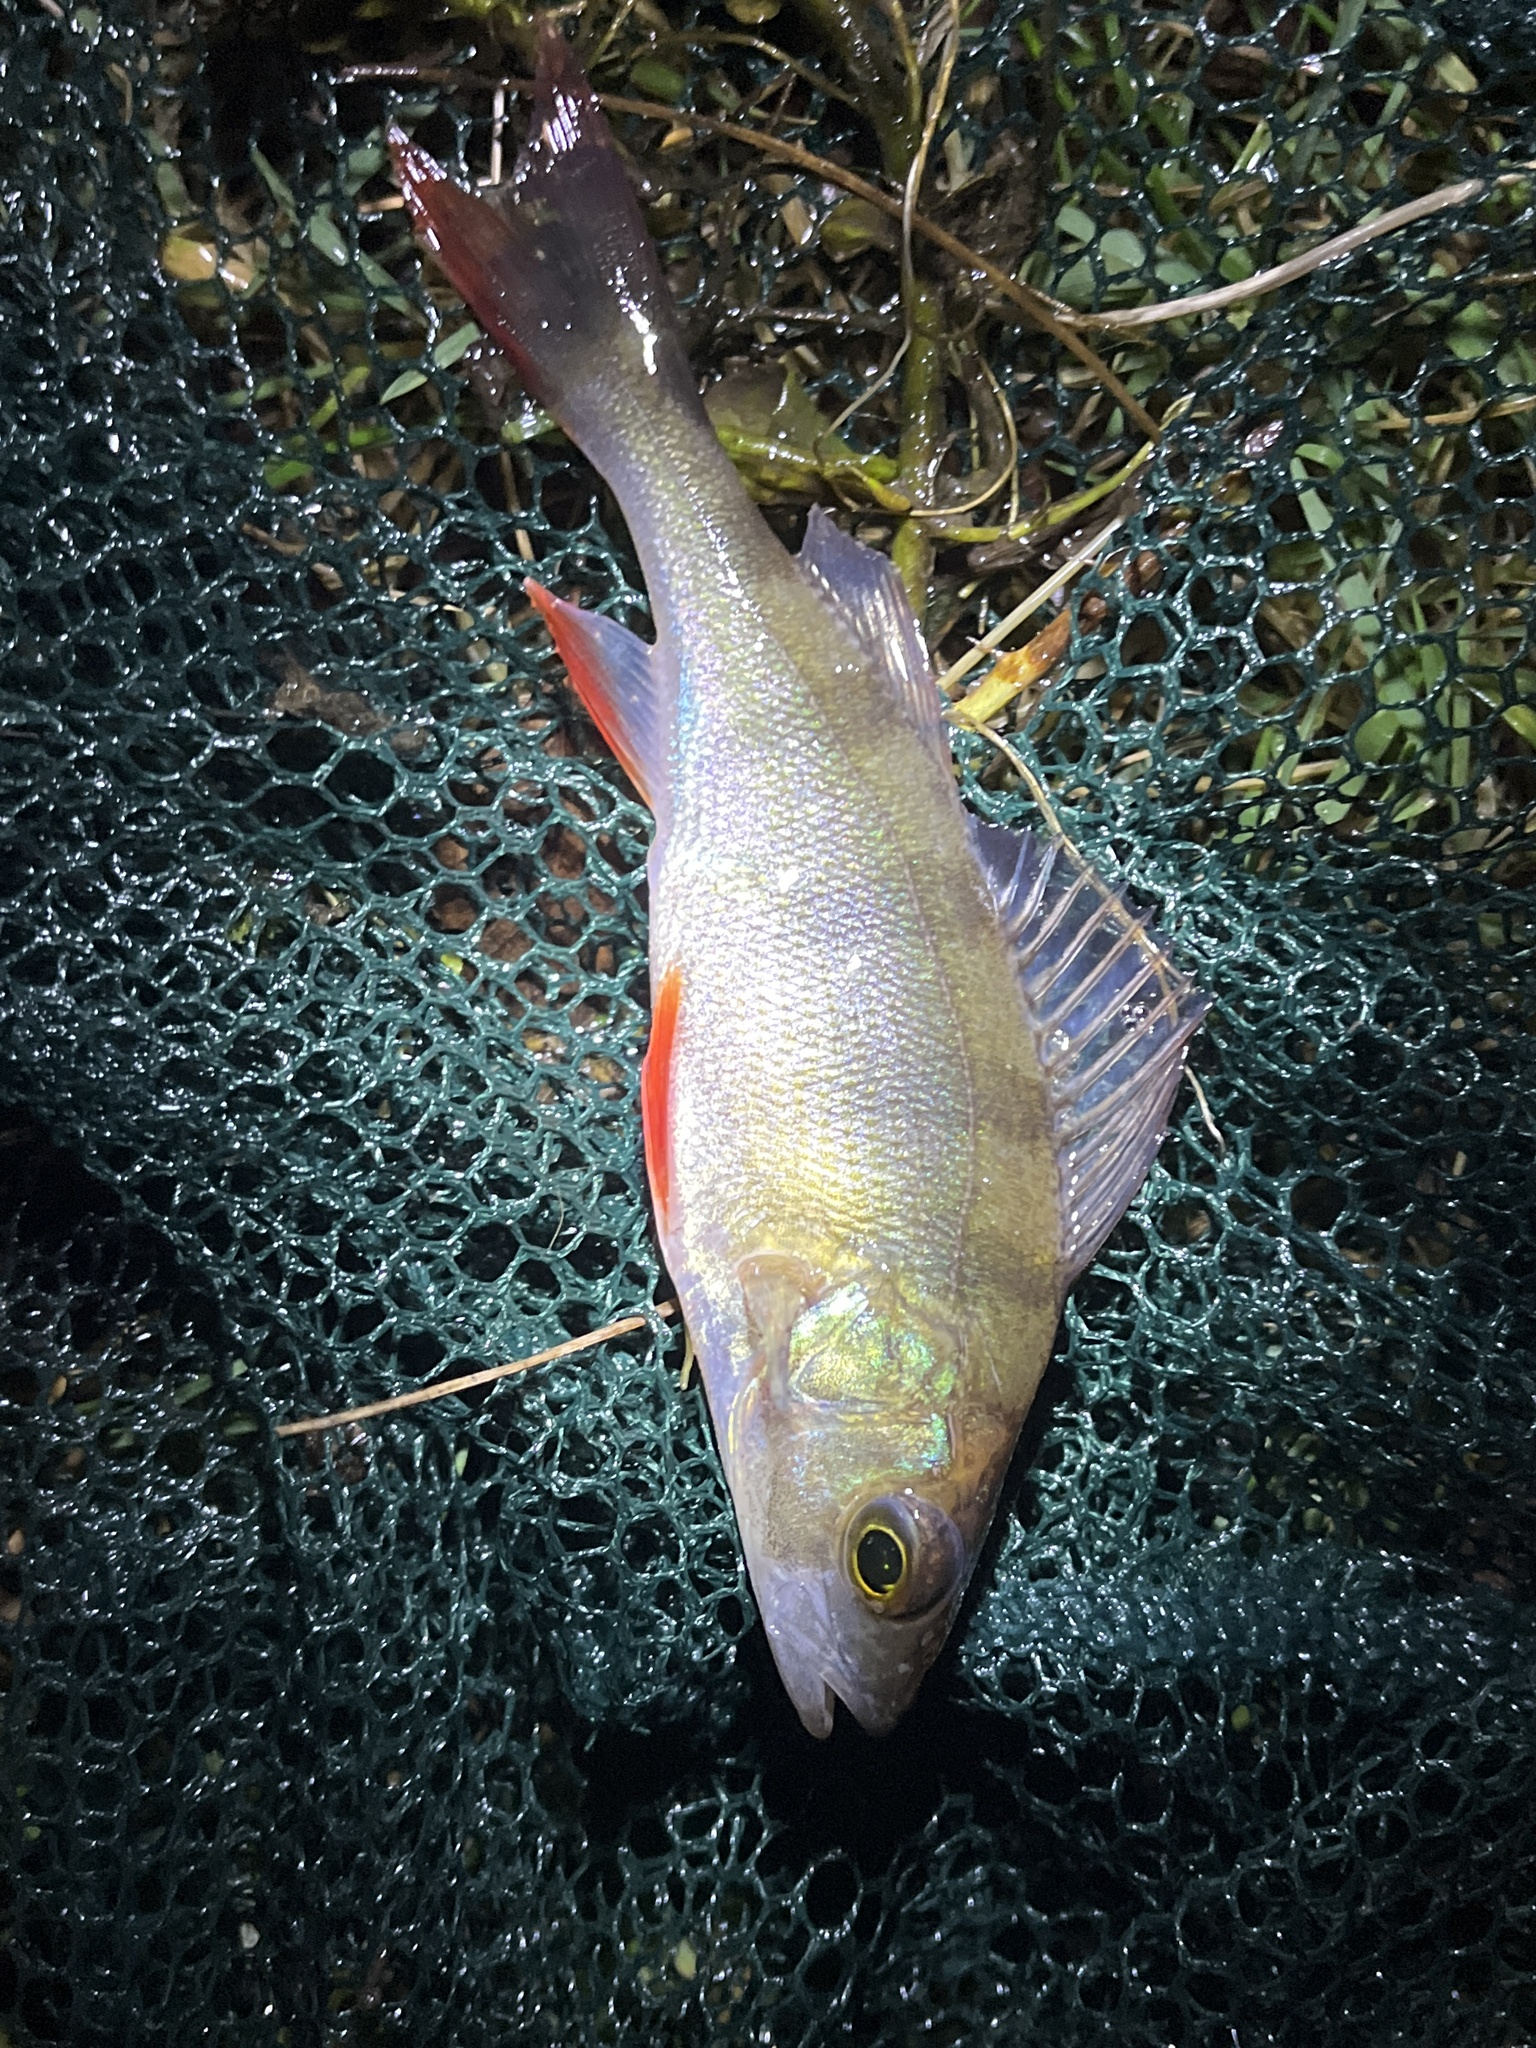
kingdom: Animalia
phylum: Chordata
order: Perciformes
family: Percidae
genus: Perca
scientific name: Perca fluviatilis
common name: Perch
